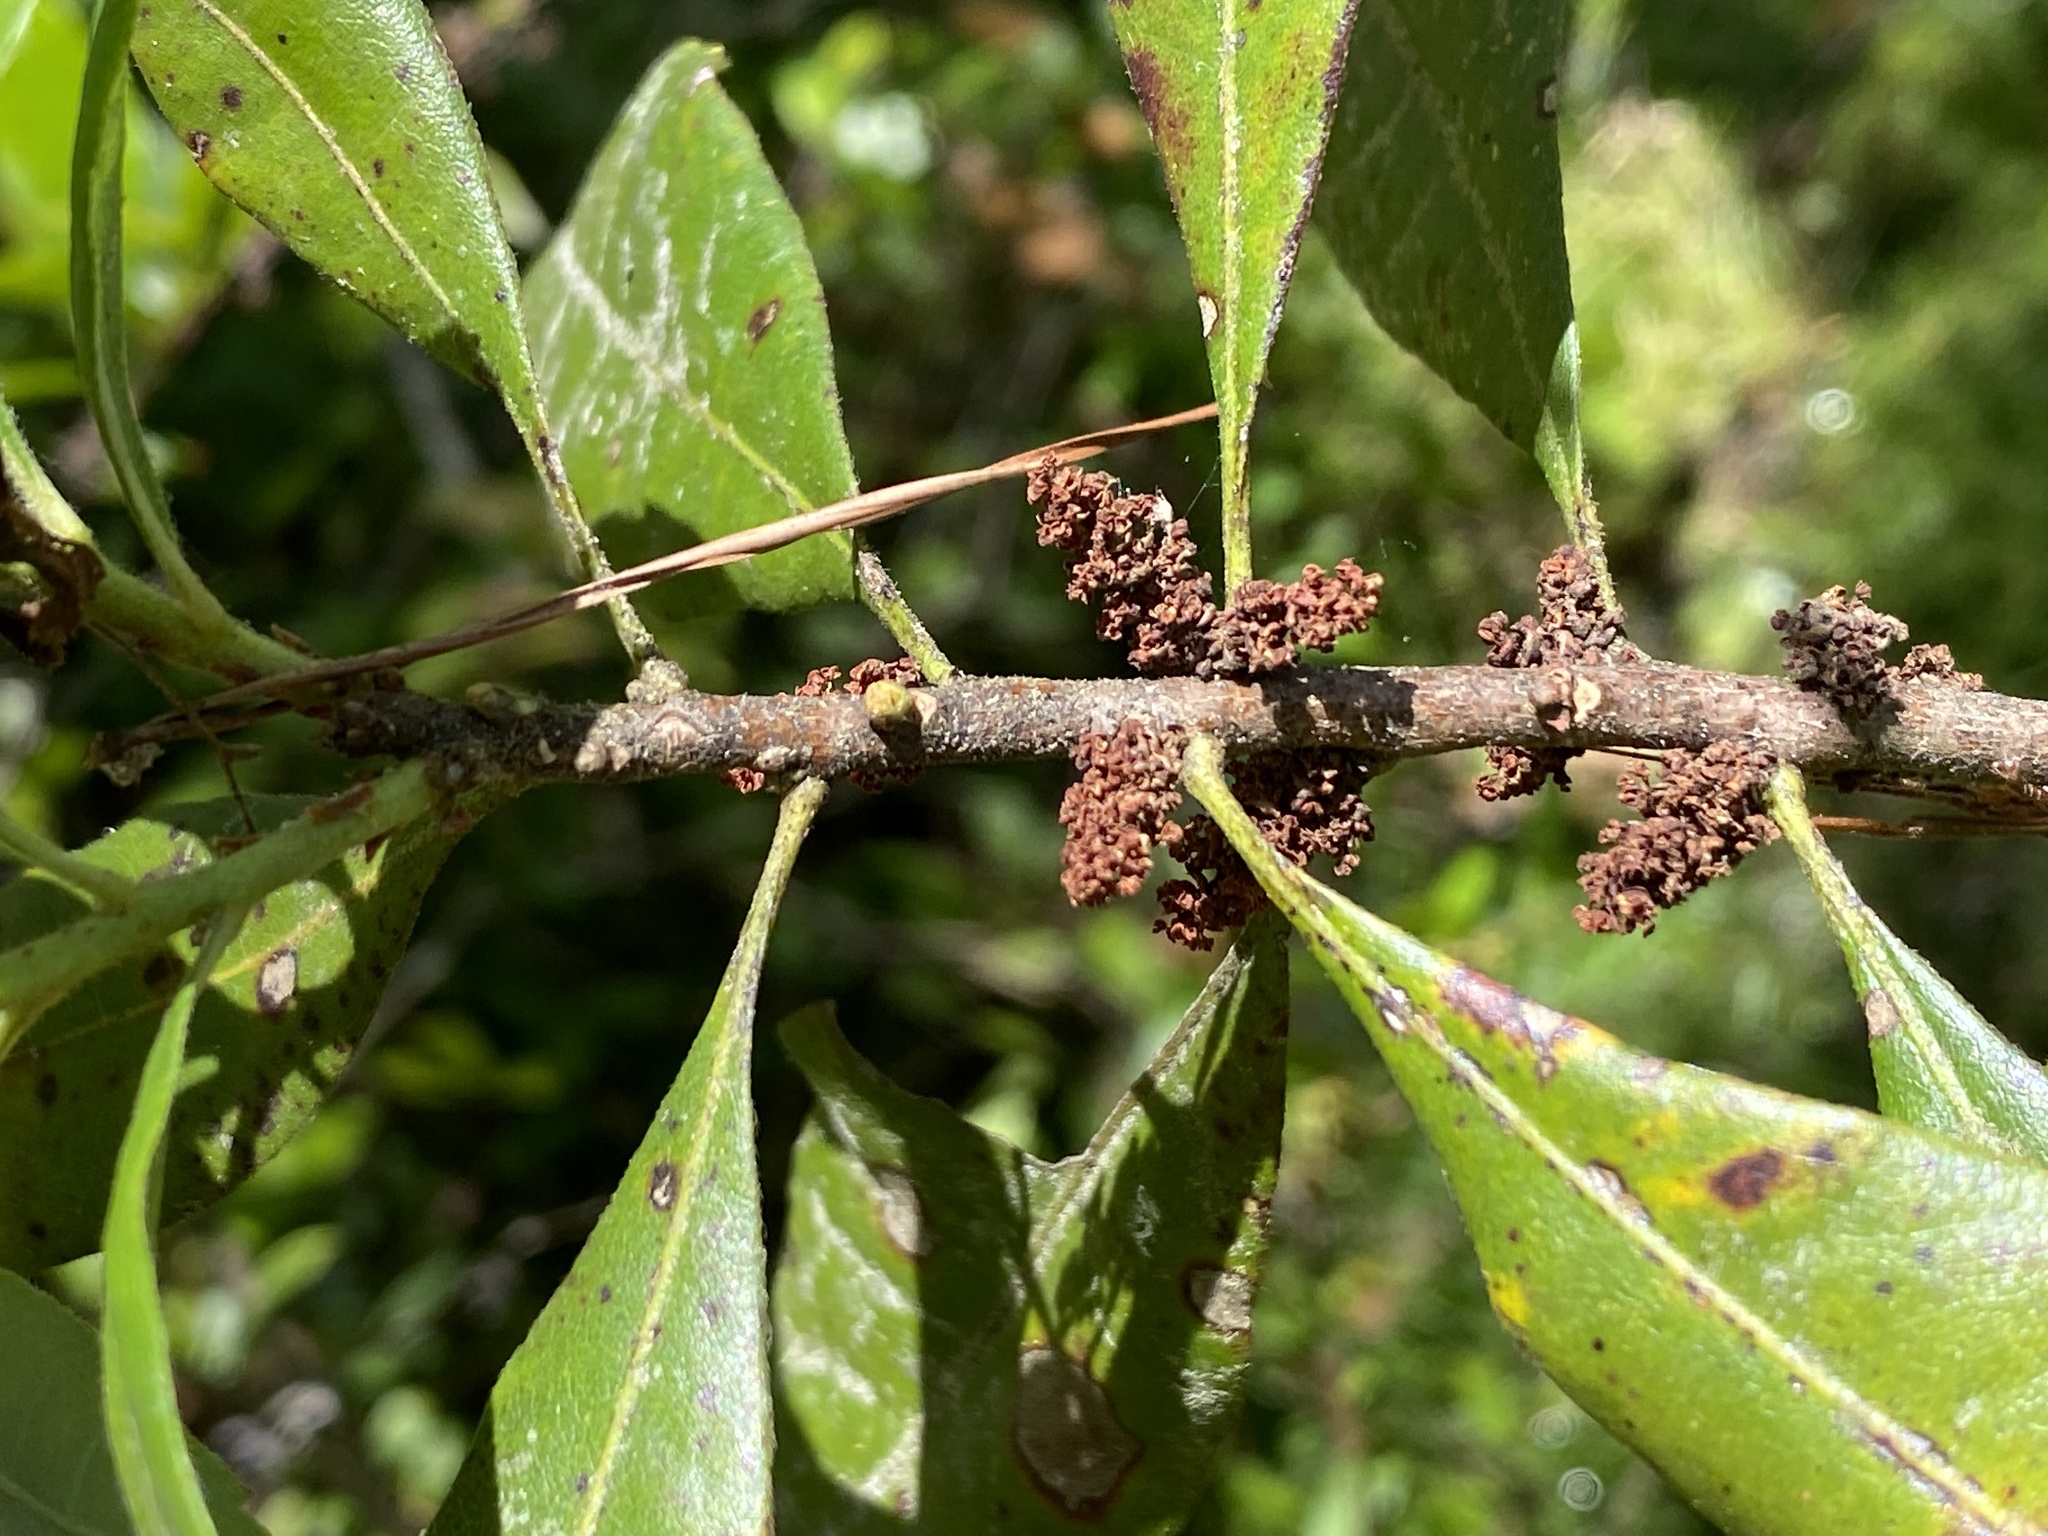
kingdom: Plantae
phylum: Tracheophyta
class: Magnoliopsida
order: Fagales
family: Myricaceae
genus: Morella
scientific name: Morella caroliniensis
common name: Evergreen bayberry
